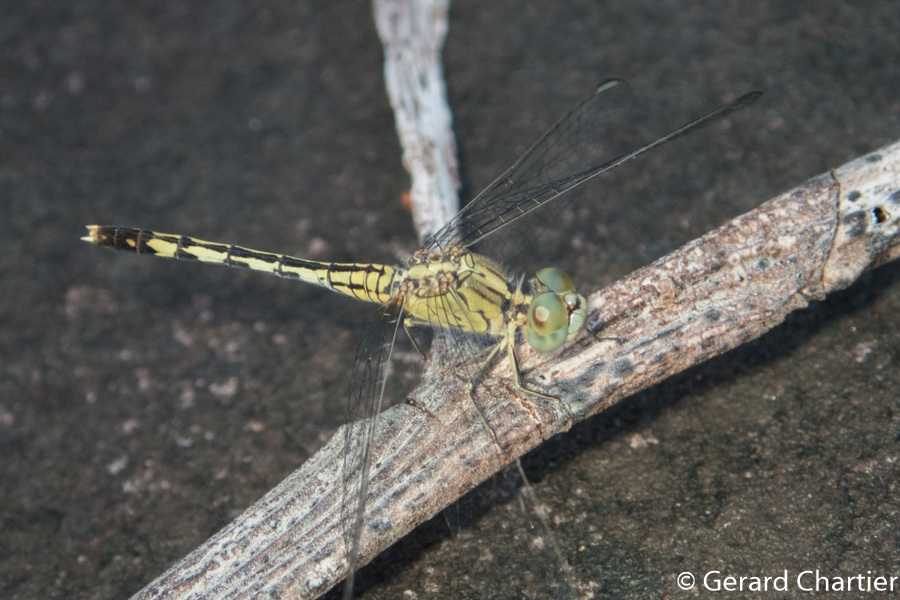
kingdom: Animalia
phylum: Arthropoda
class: Insecta
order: Odonata
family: Libellulidae
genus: Diplacodes
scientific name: Diplacodes trivialis
